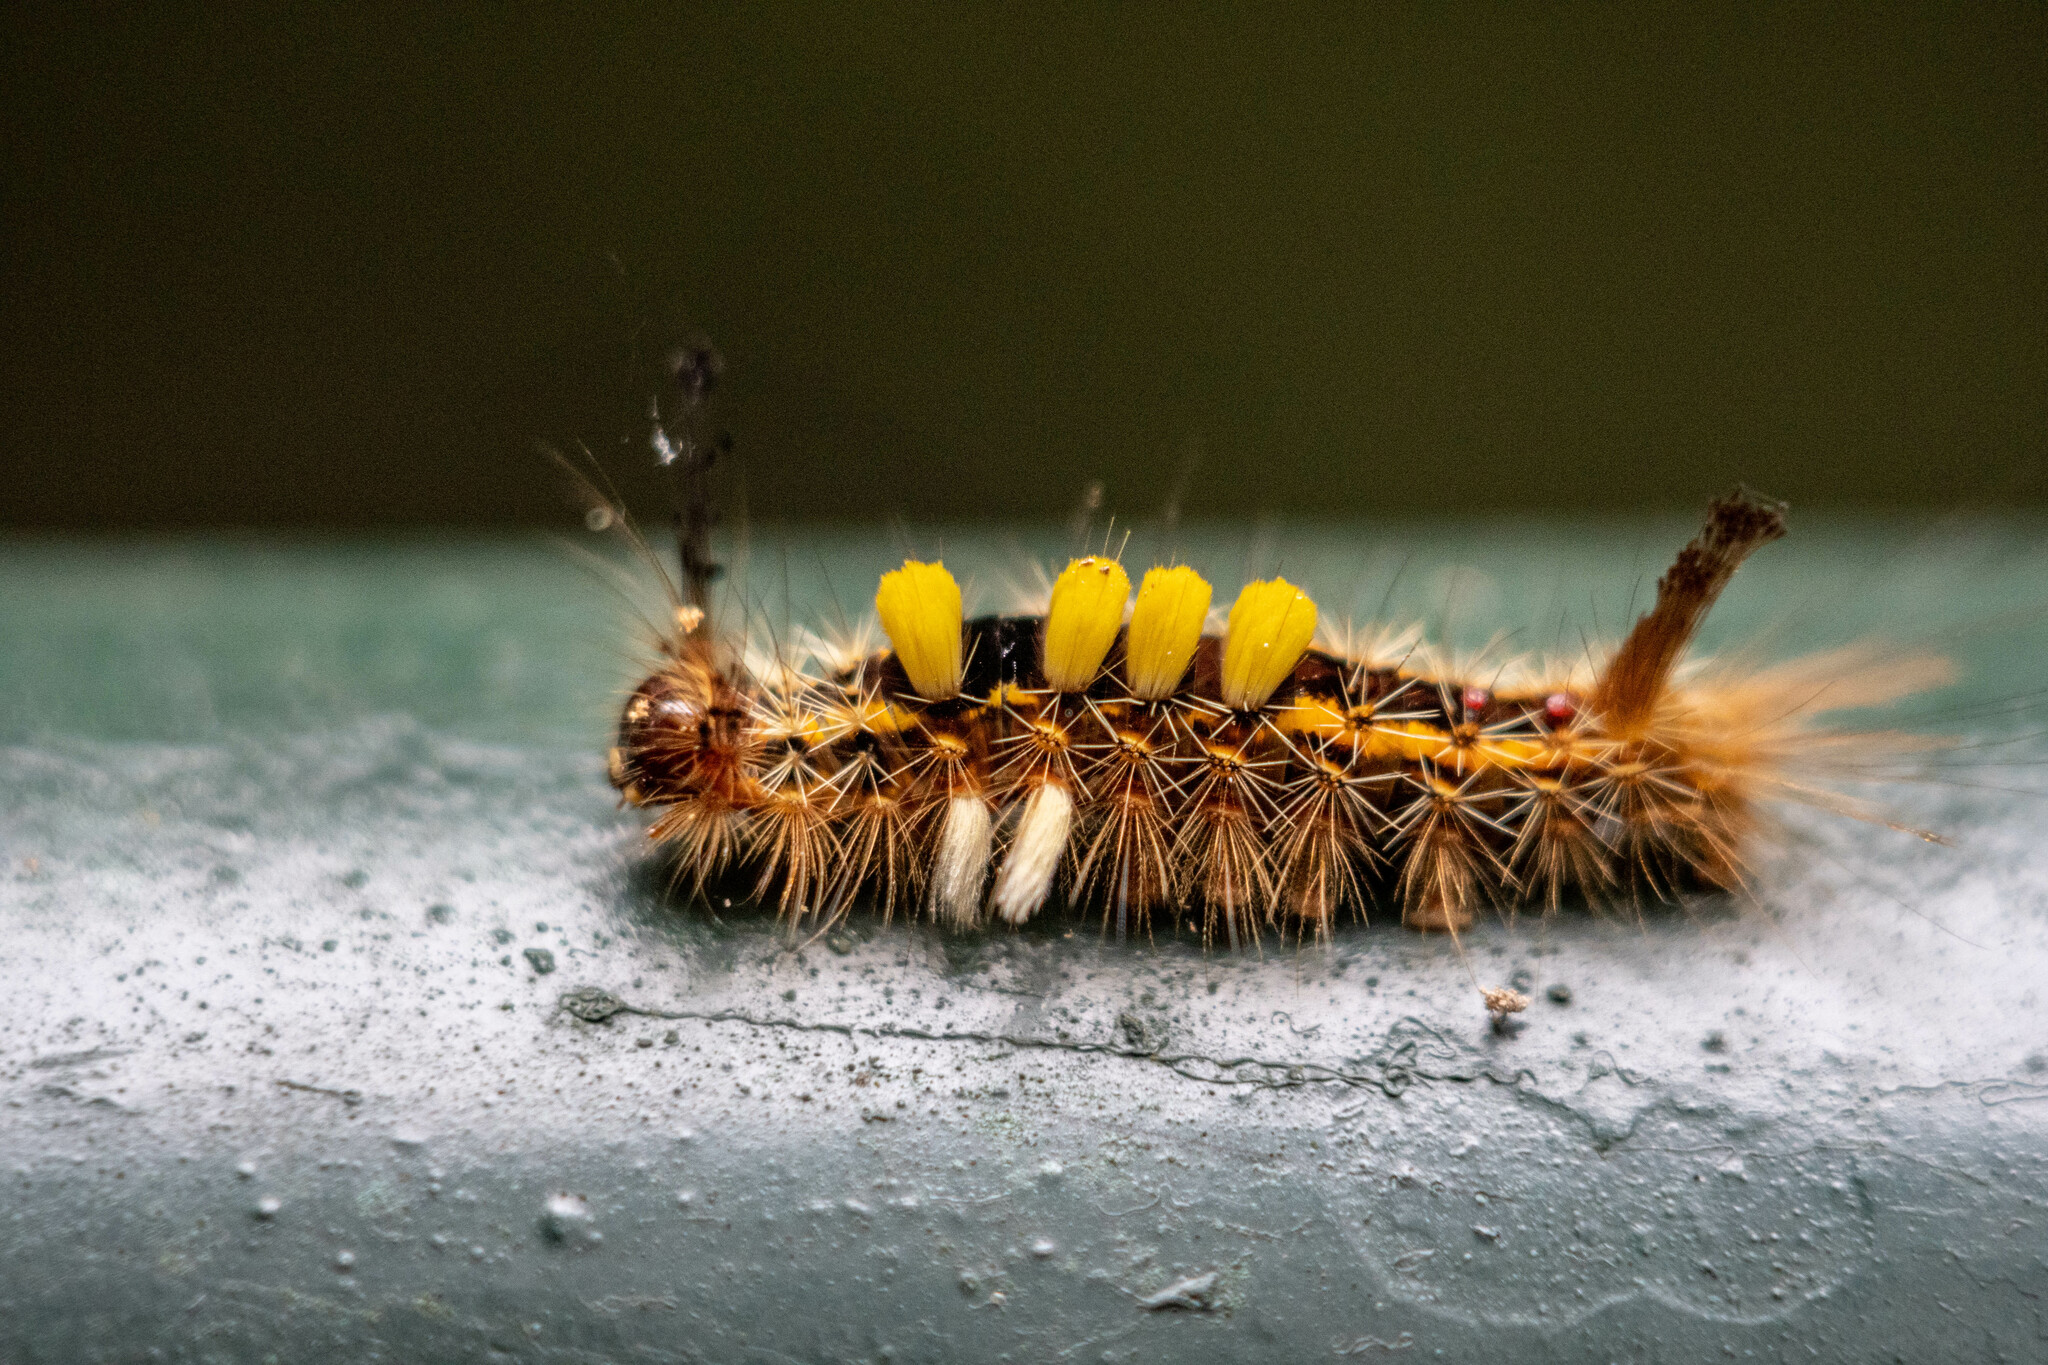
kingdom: Animalia
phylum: Arthropoda
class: Insecta
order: Lepidoptera
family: Erebidae
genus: Orgyia
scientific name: Orgyia postica
